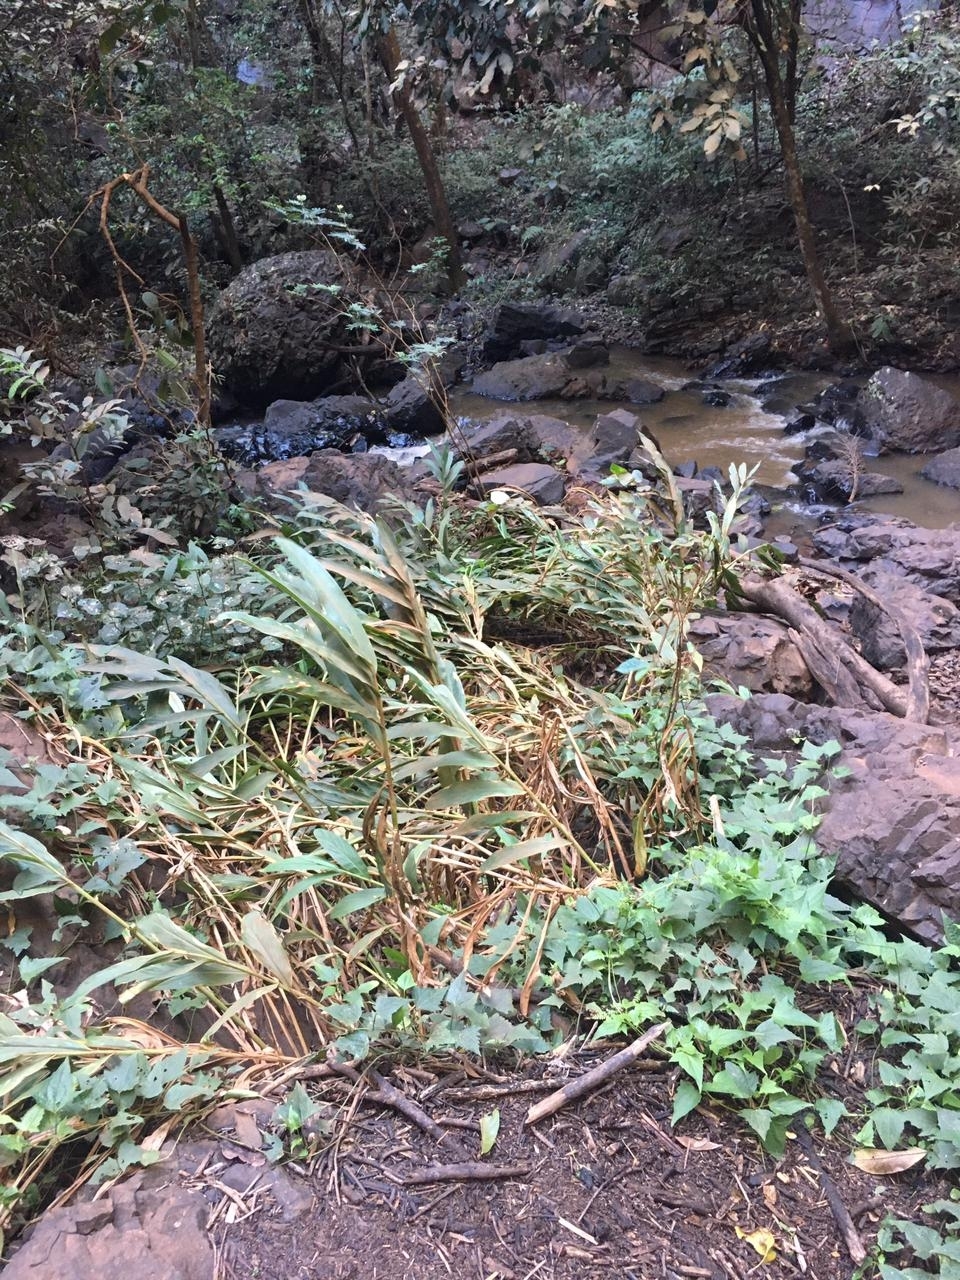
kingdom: Plantae
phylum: Tracheophyta
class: Liliopsida
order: Zingiberales
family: Zingiberaceae
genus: Hedychium
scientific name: Hedychium coronarium
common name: White garland-lily
